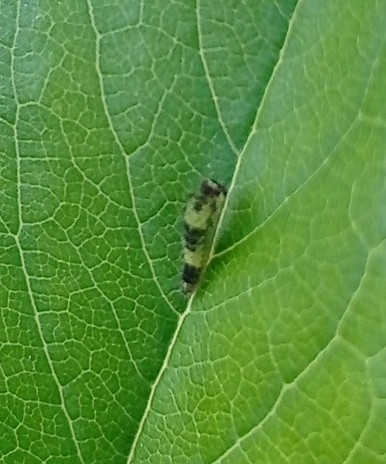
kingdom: Animalia
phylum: Arthropoda
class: Insecta
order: Lepidoptera
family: Papilionidae
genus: Iphiclides
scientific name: Iphiclides feisthamelii
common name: Iberian scarce swallowtail
